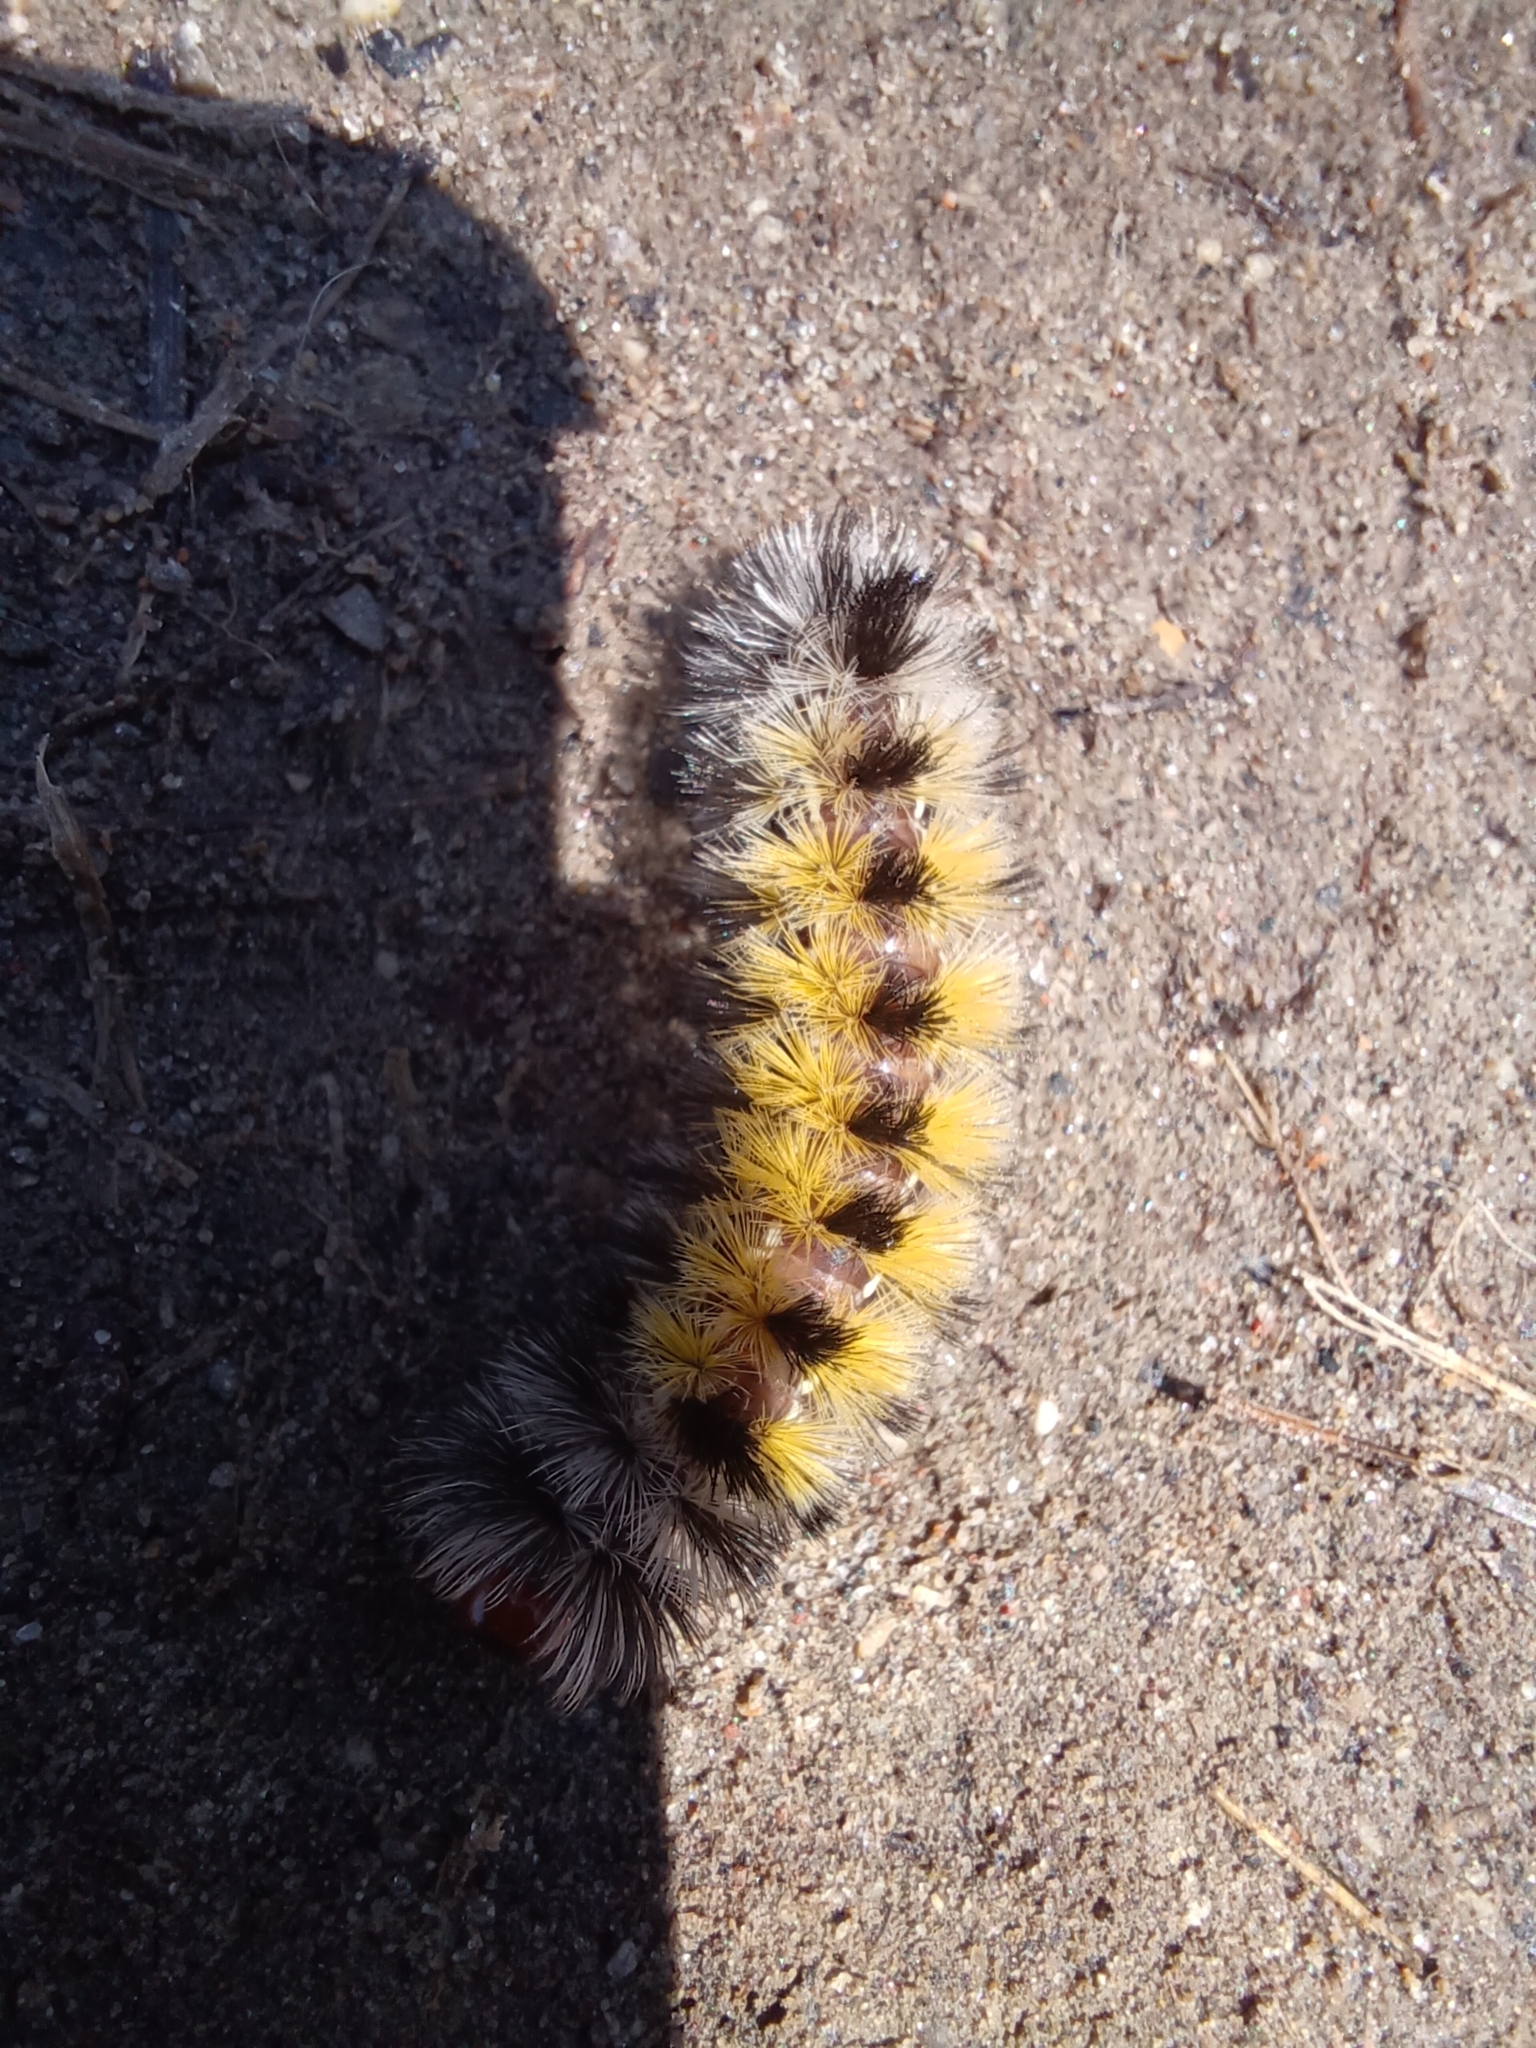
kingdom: Animalia
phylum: Arthropoda
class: Insecta
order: Lepidoptera
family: Erebidae
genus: Ctenucha
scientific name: Ctenucha virginica
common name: Virginia ctenucha moth
